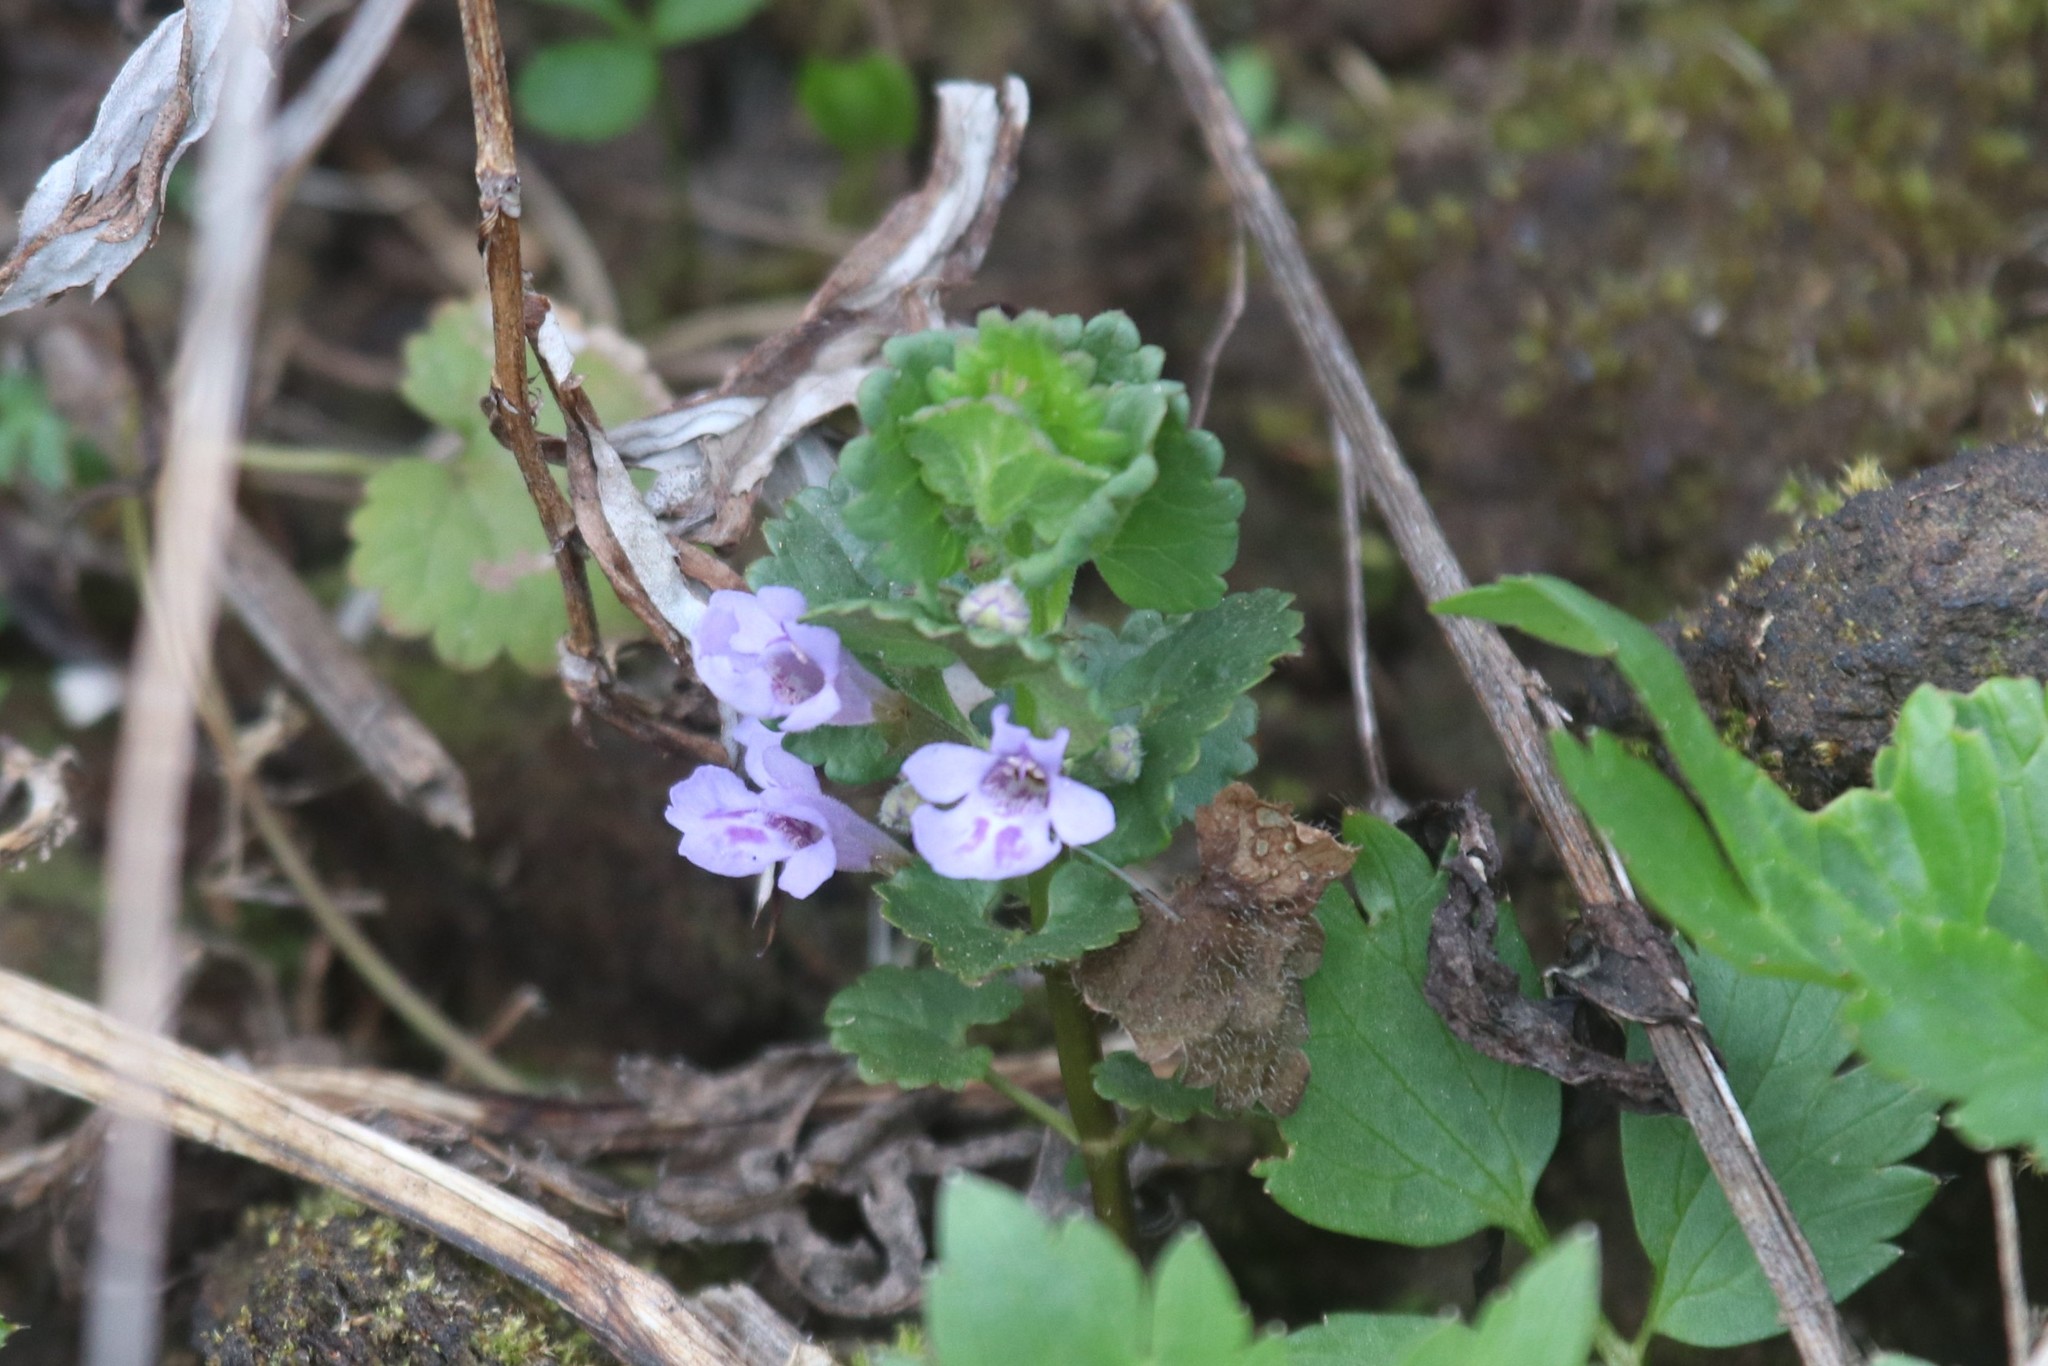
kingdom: Plantae
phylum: Tracheophyta
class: Magnoliopsida
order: Lamiales
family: Lamiaceae
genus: Glechoma
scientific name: Glechoma hederacea
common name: Ground ivy
